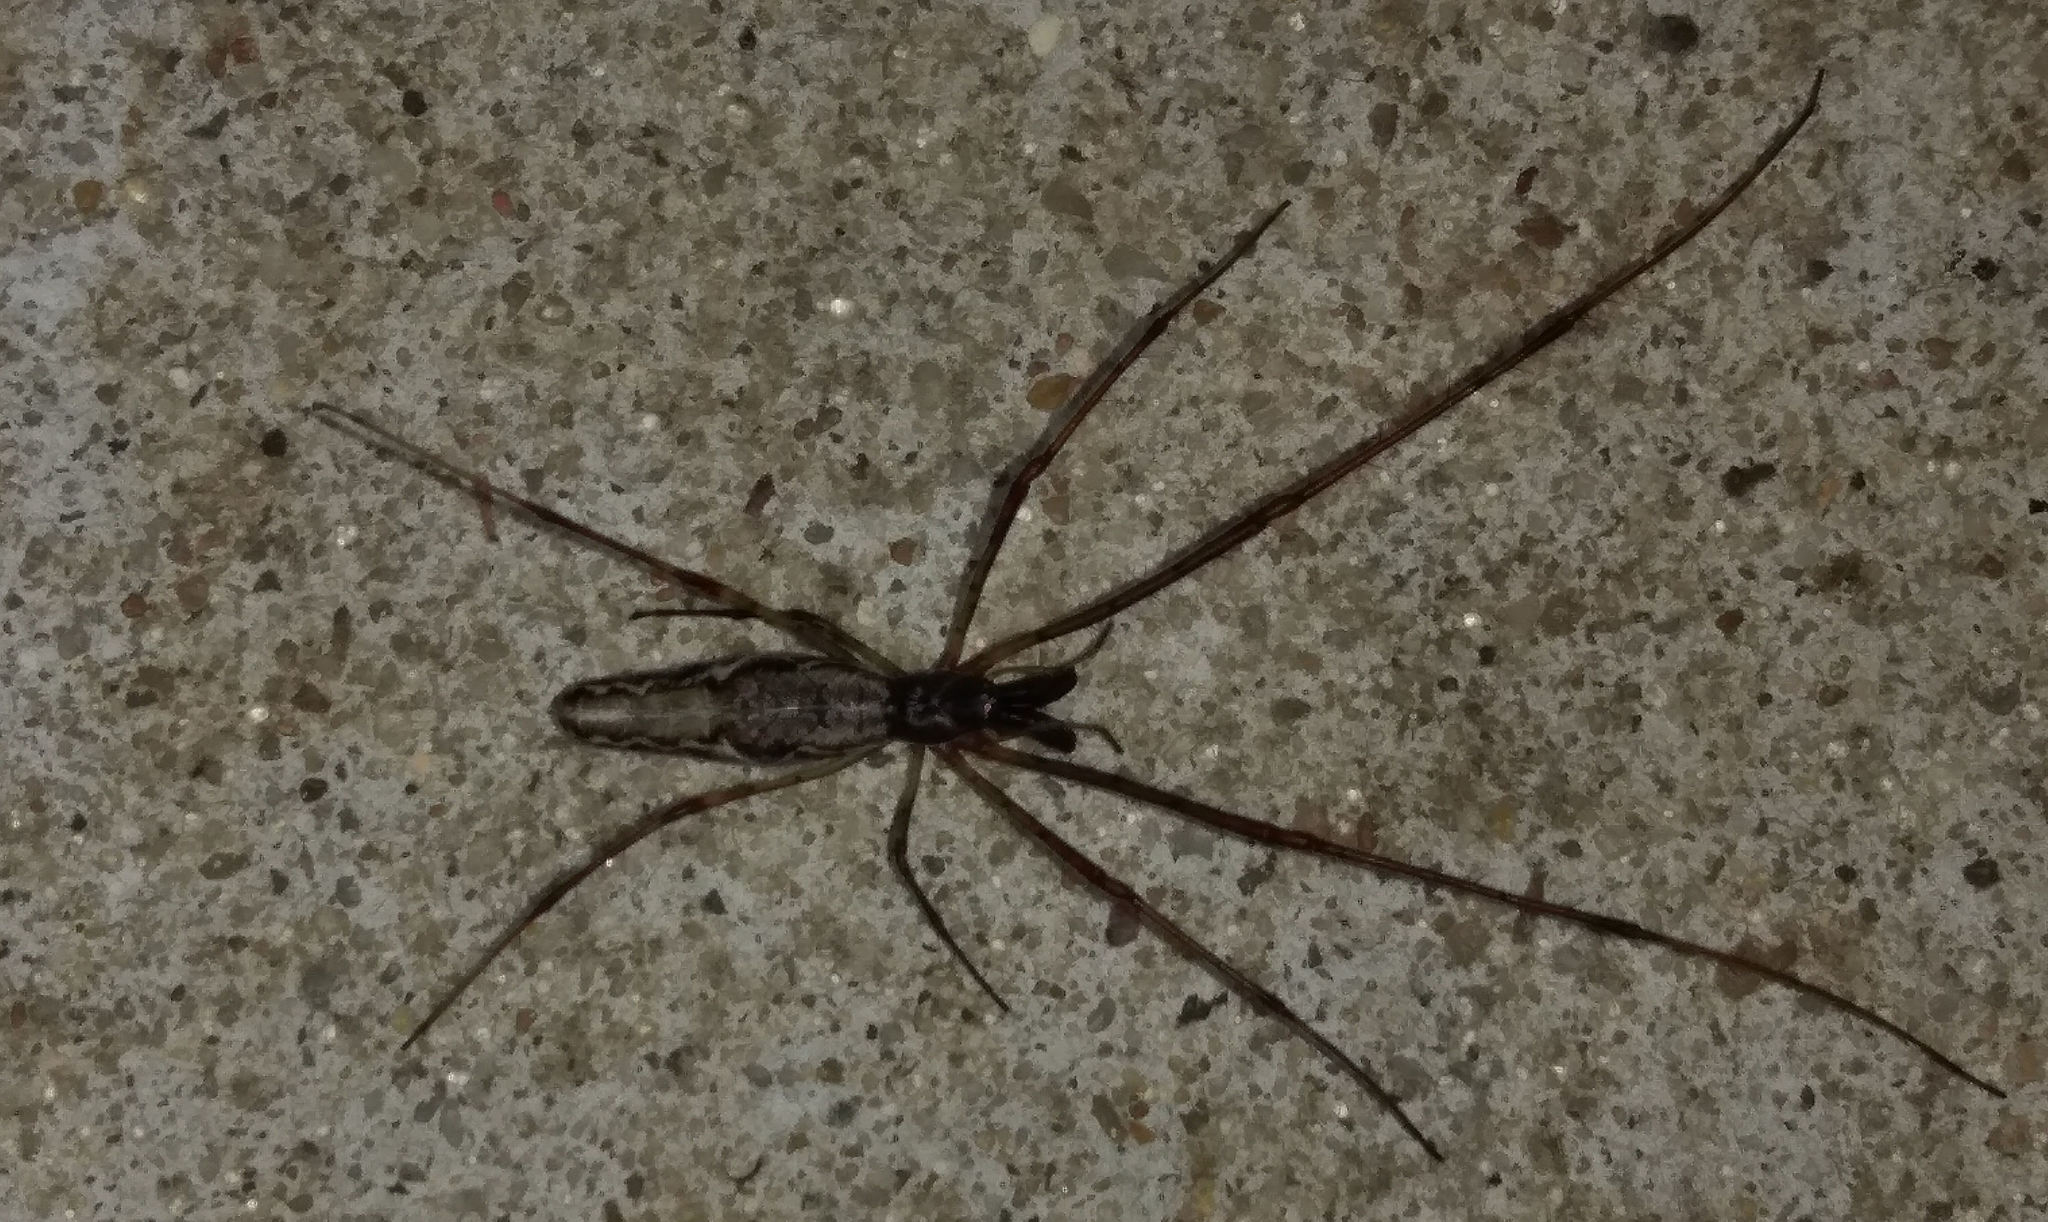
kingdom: Animalia
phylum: Arthropoda
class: Arachnida
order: Araneae
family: Tetragnathidae
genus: Tetragnatha
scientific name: Tetragnatha
